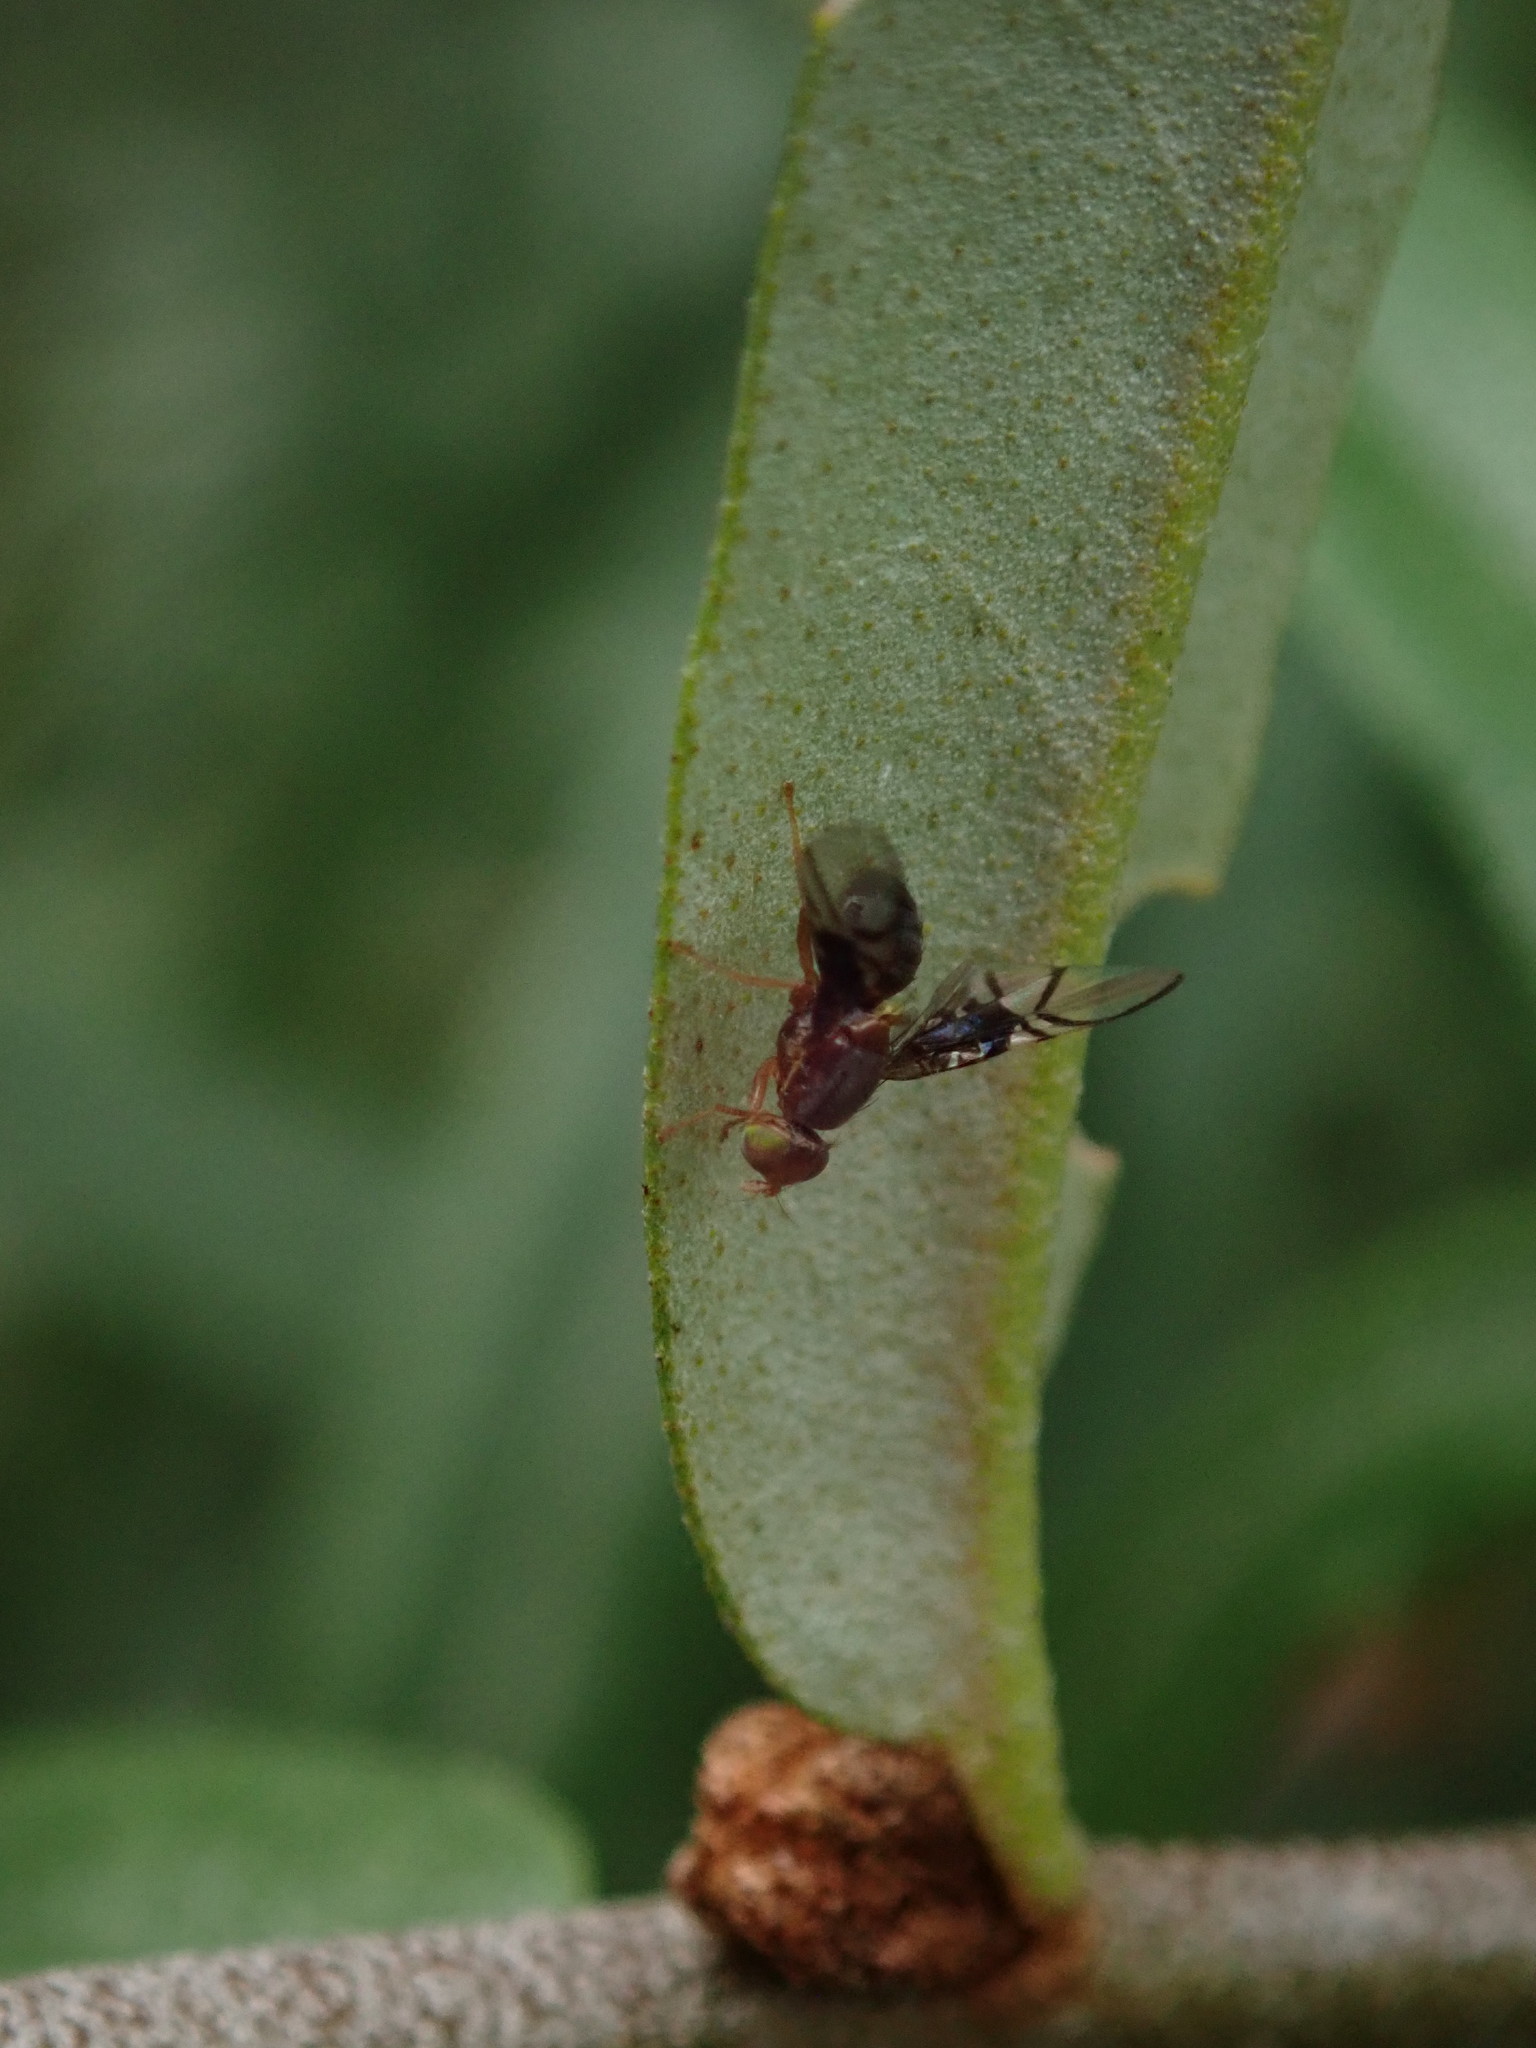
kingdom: Animalia
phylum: Arthropoda
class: Insecta
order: Diptera
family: Tephritidae
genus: Anomoia
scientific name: Anomoia purmunda
